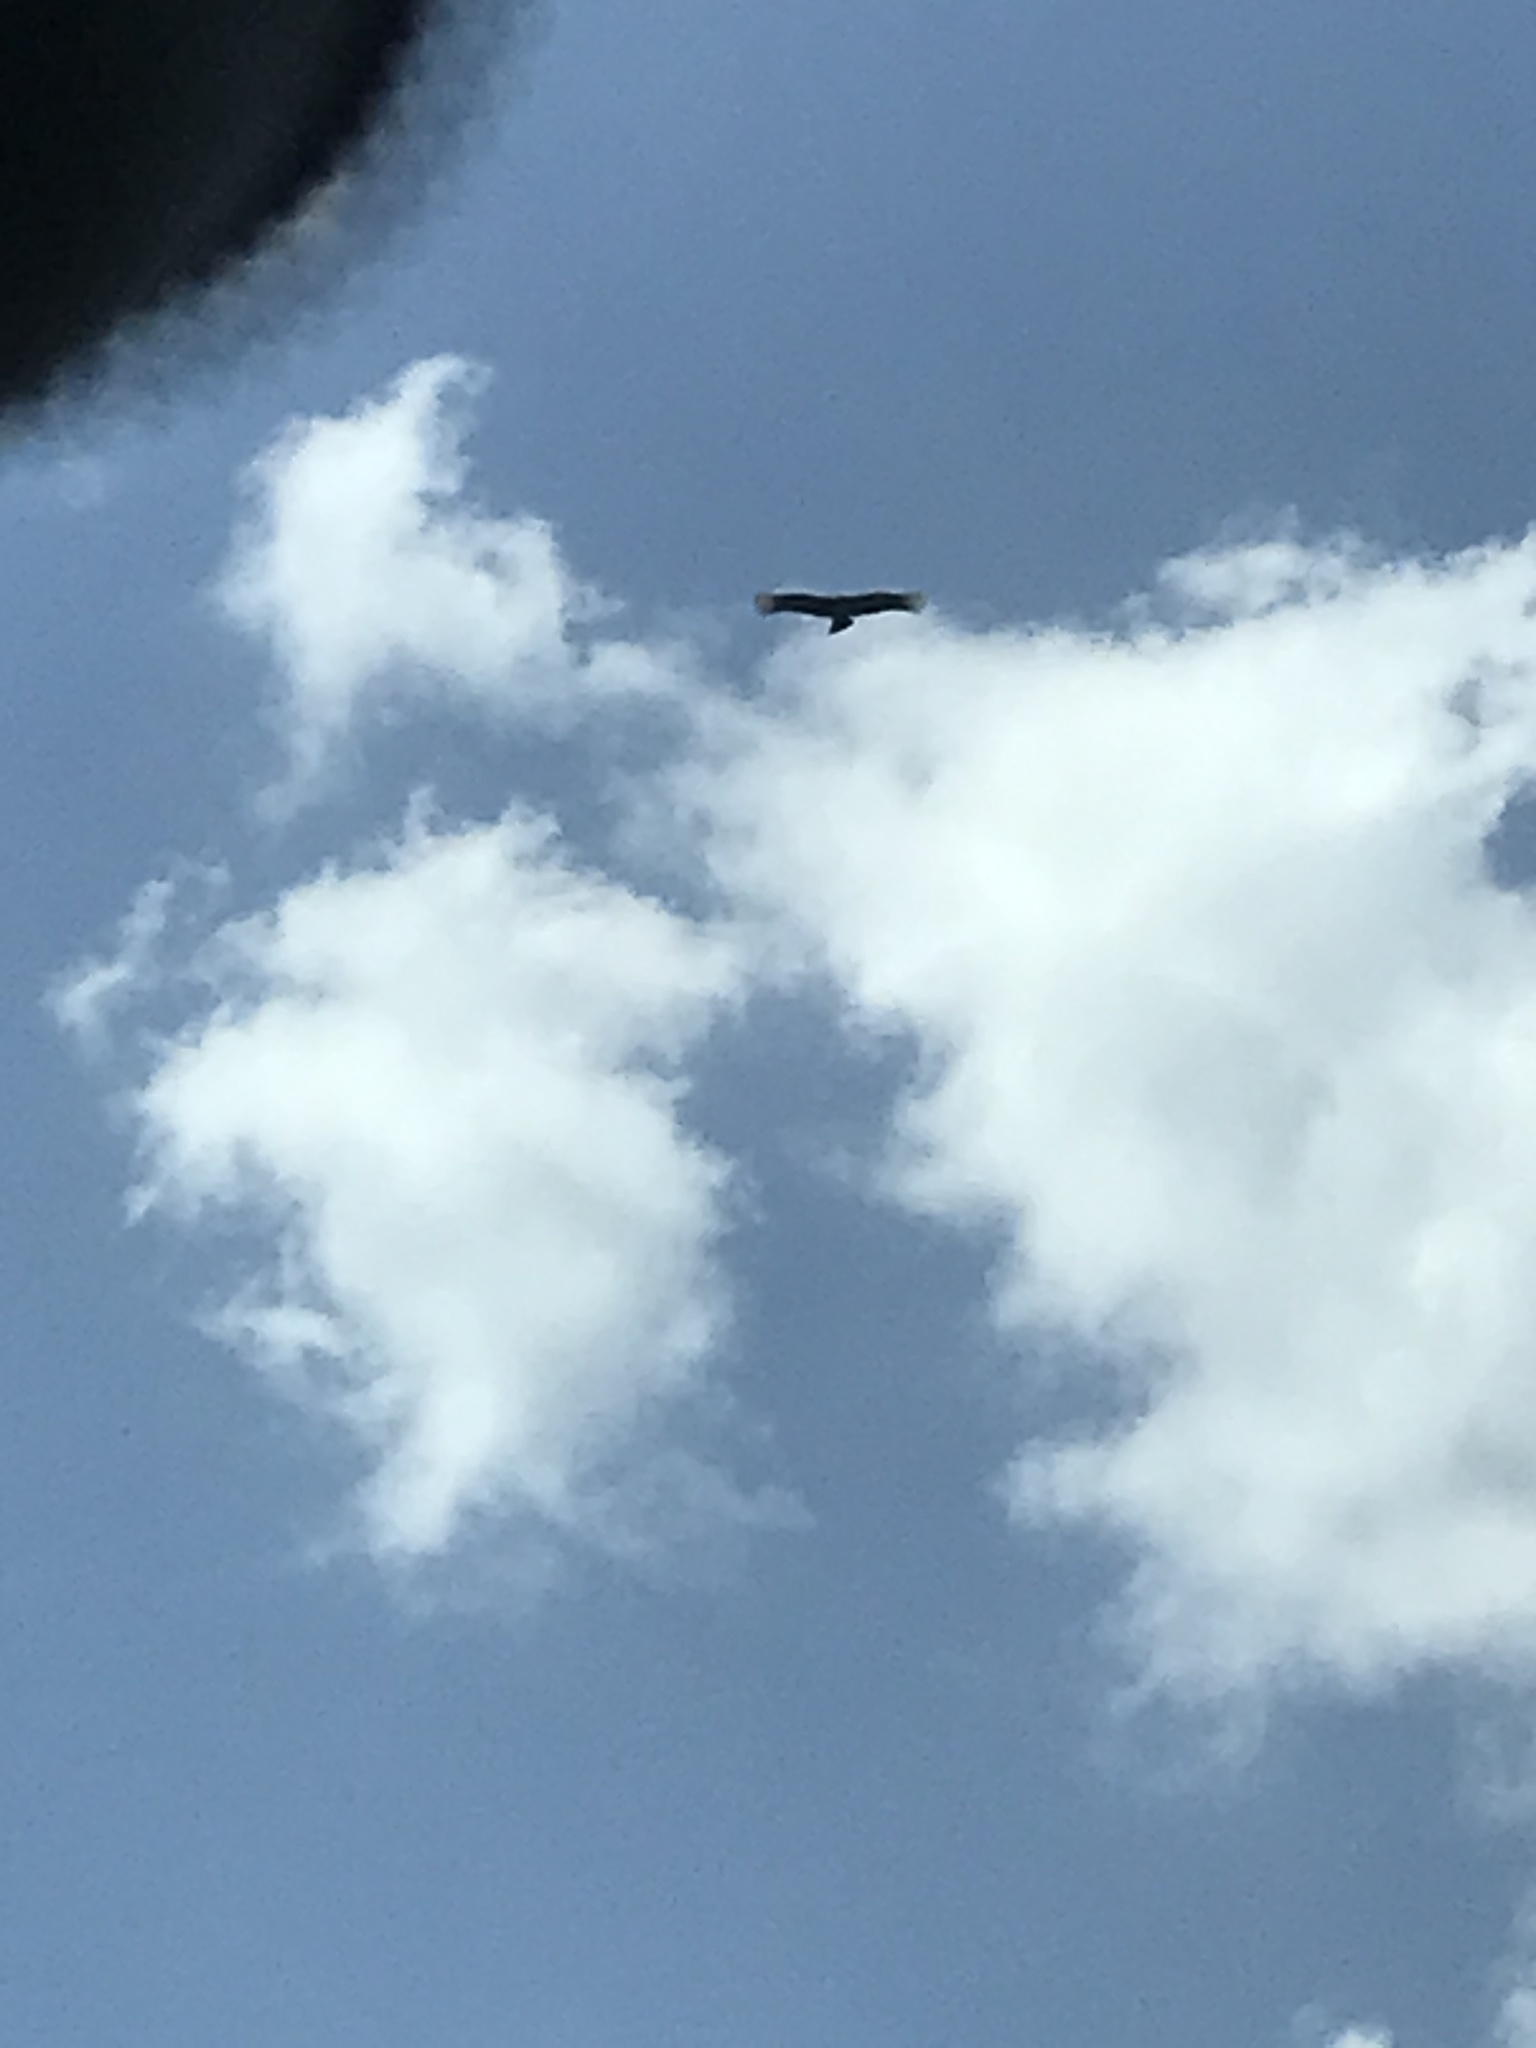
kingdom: Animalia
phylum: Chordata
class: Aves
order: Accipitriformes
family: Cathartidae
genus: Cathartes
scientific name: Cathartes aura
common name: Turkey vulture
